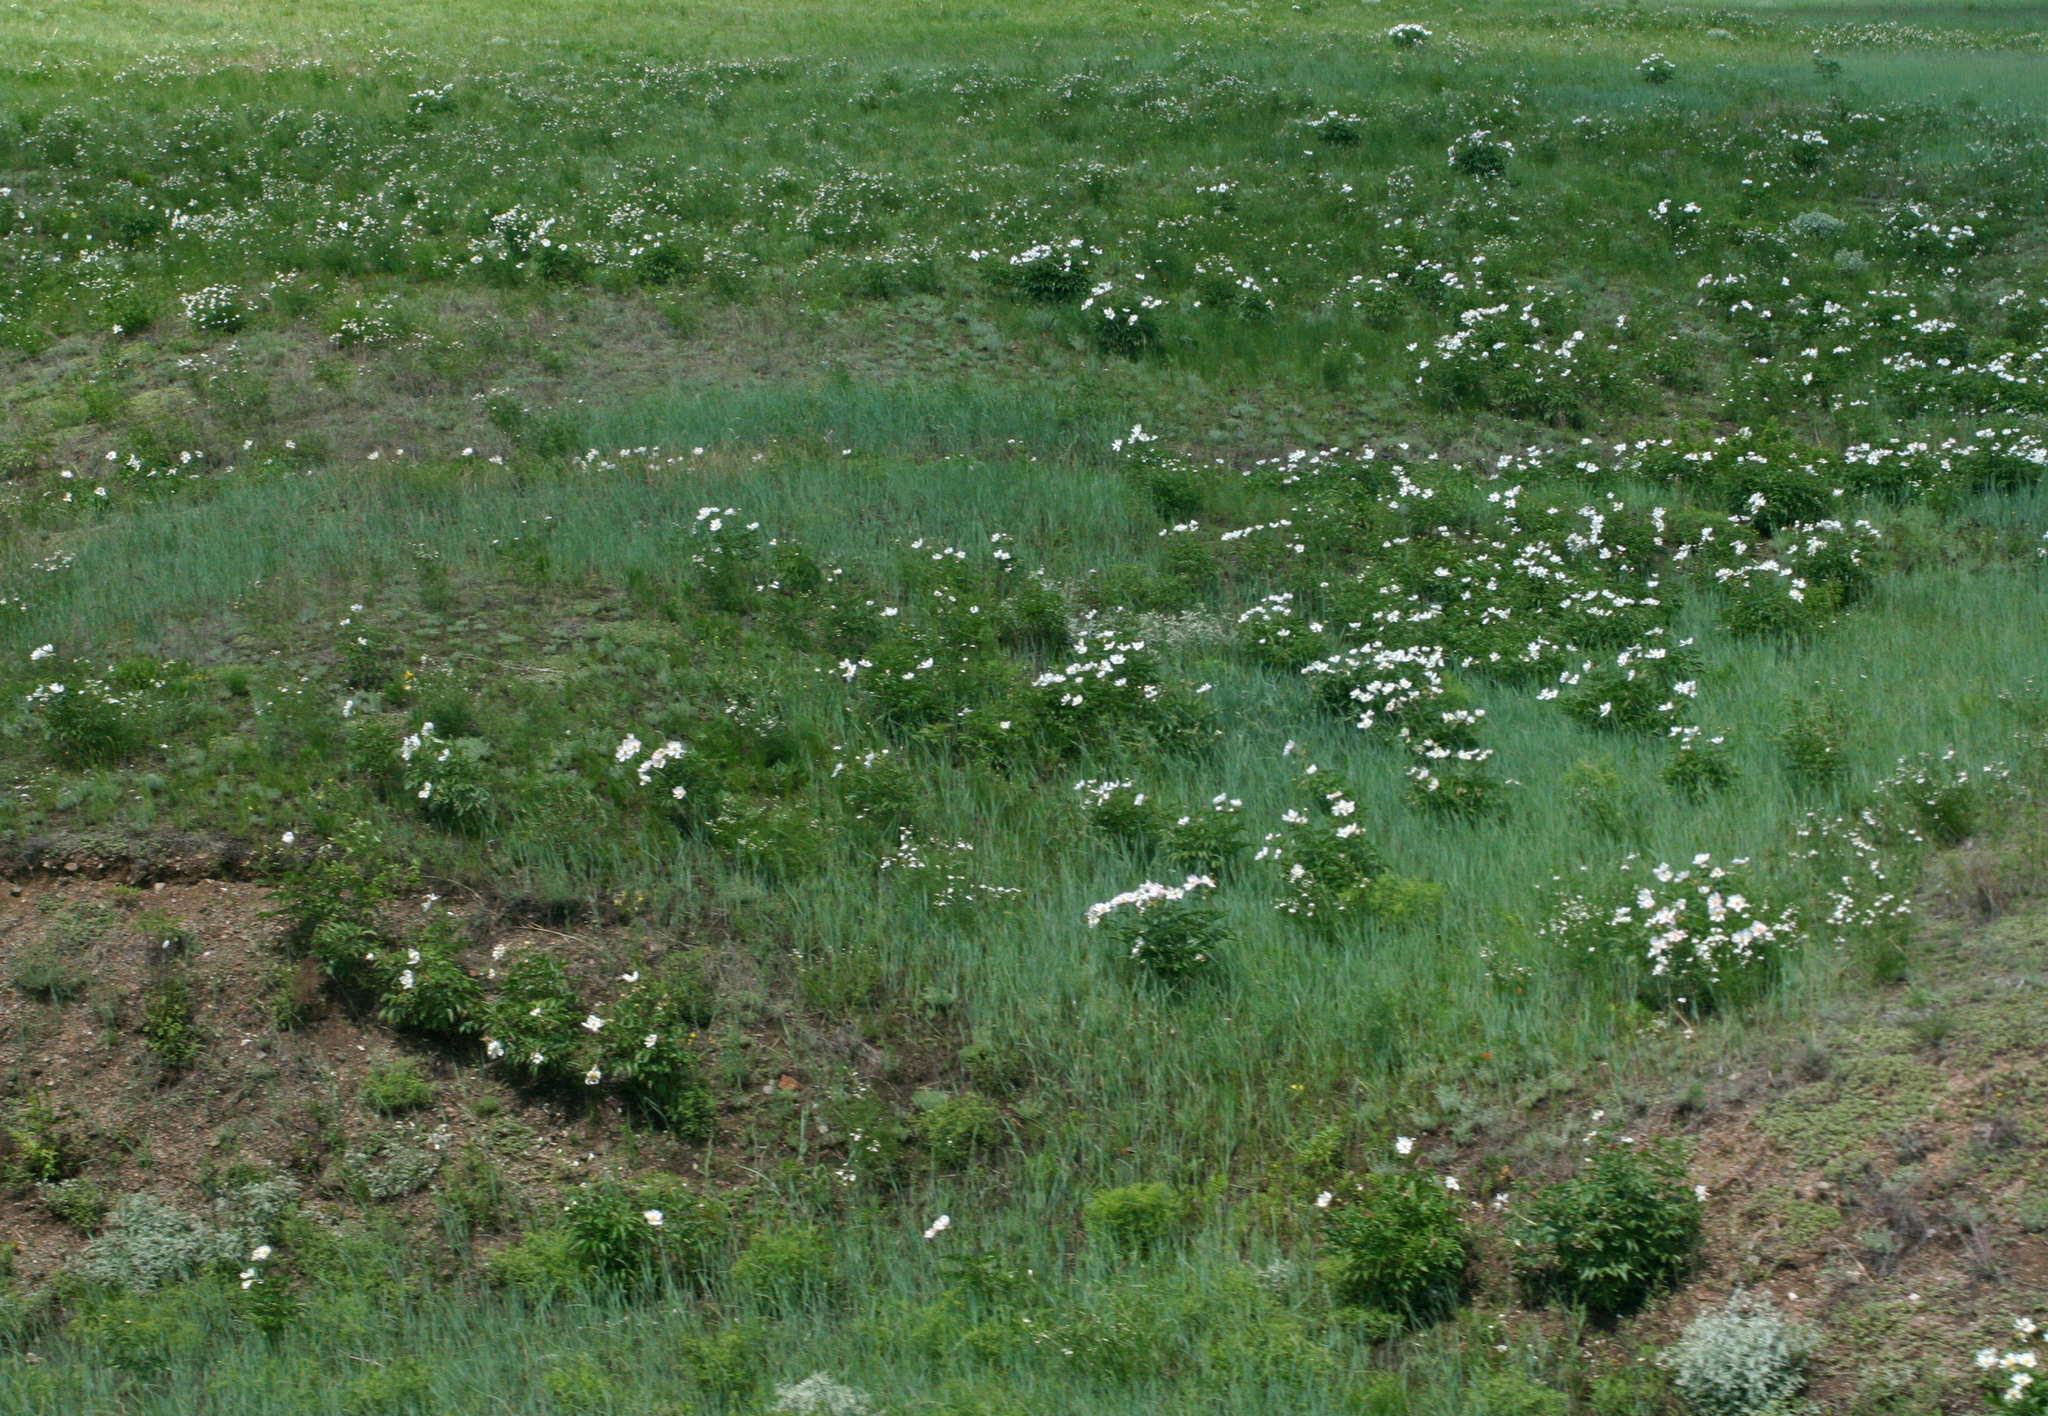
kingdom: Plantae
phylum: Tracheophyta
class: Magnoliopsida
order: Saxifragales
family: Paeoniaceae
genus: Paeonia
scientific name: Paeonia lactiflora
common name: Chinese peony
